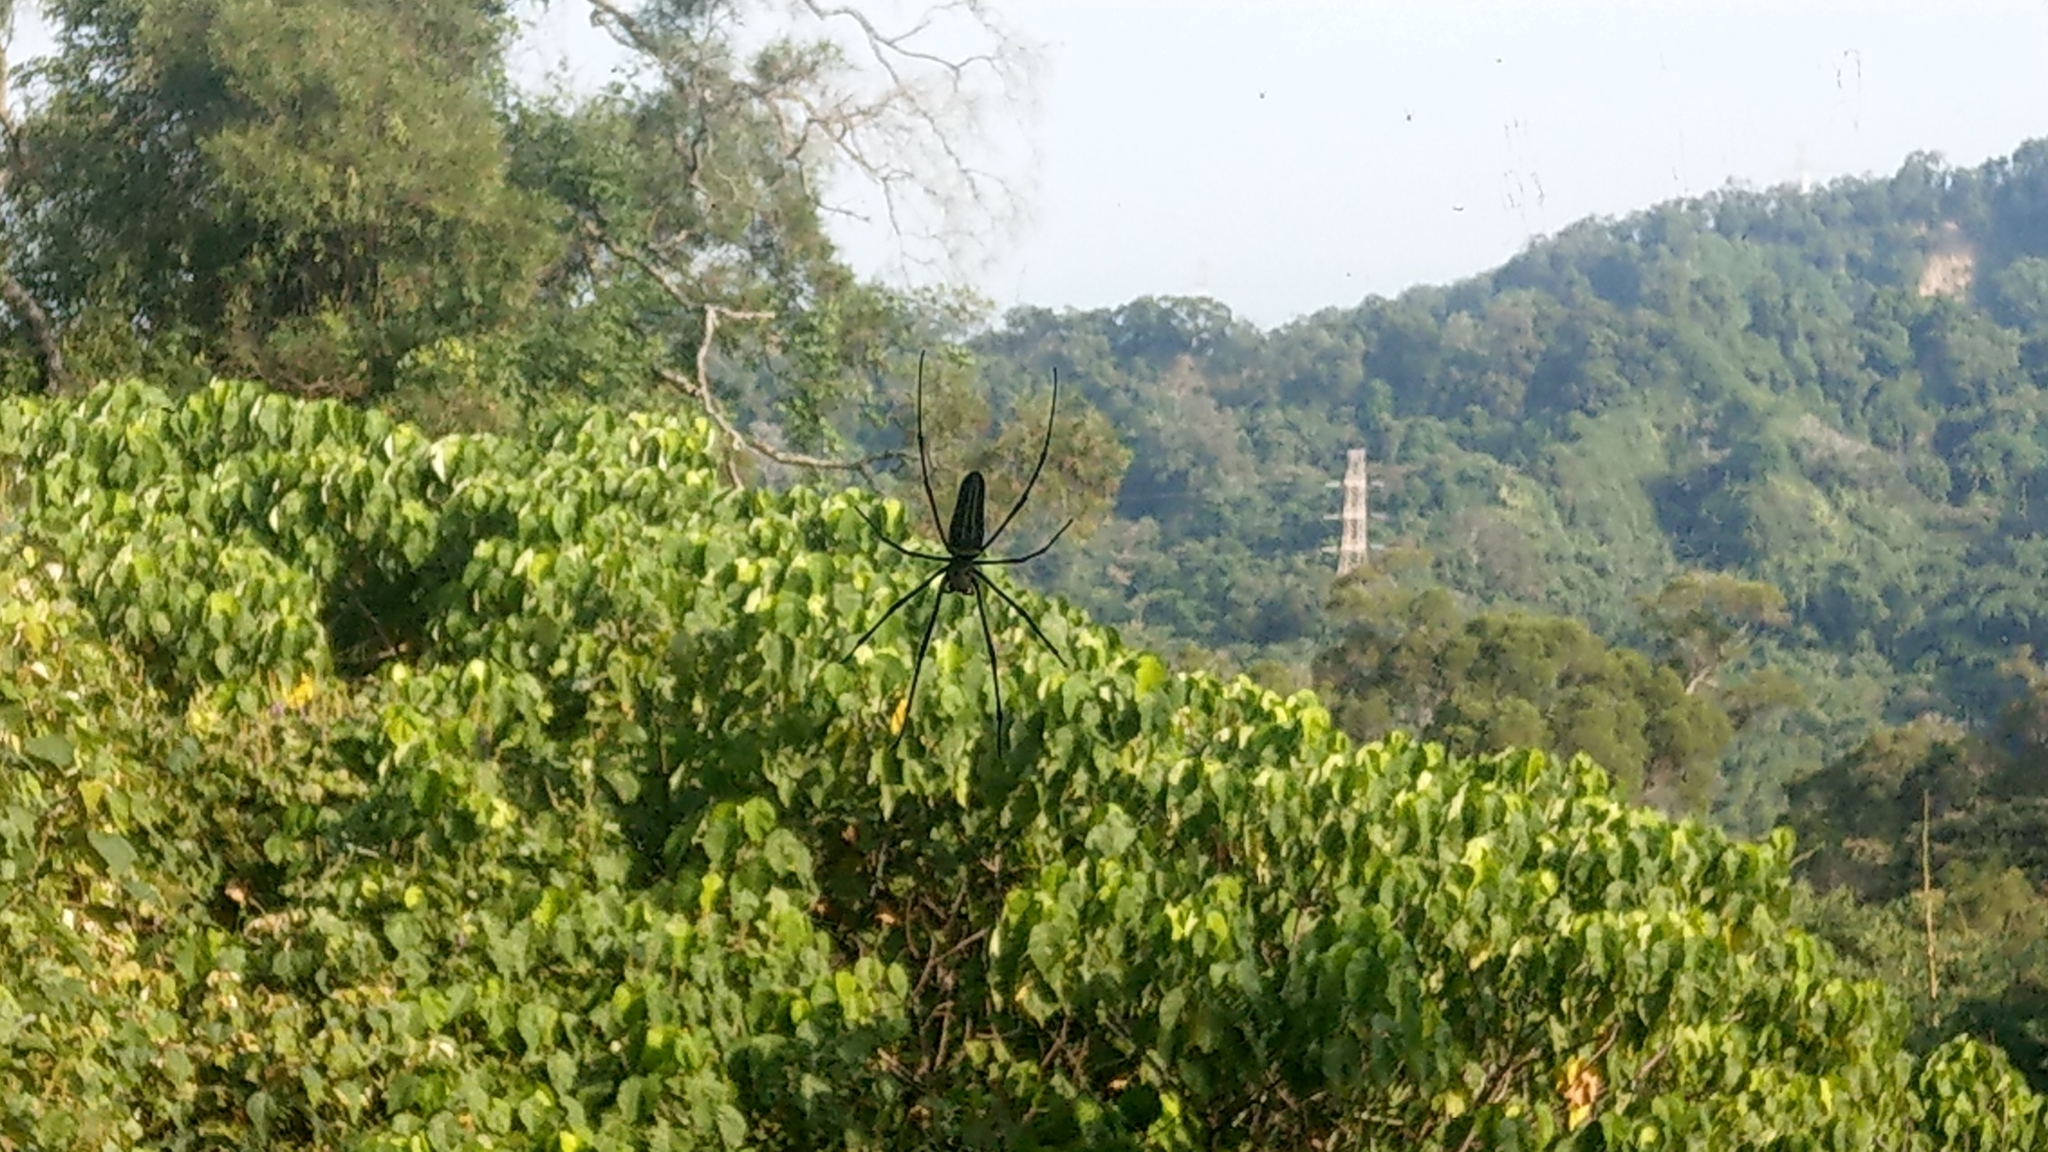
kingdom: Animalia
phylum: Arthropoda
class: Arachnida
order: Araneae
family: Araneidae
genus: Nephila
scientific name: Nephila pilipes
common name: Giant golden orb weaver
